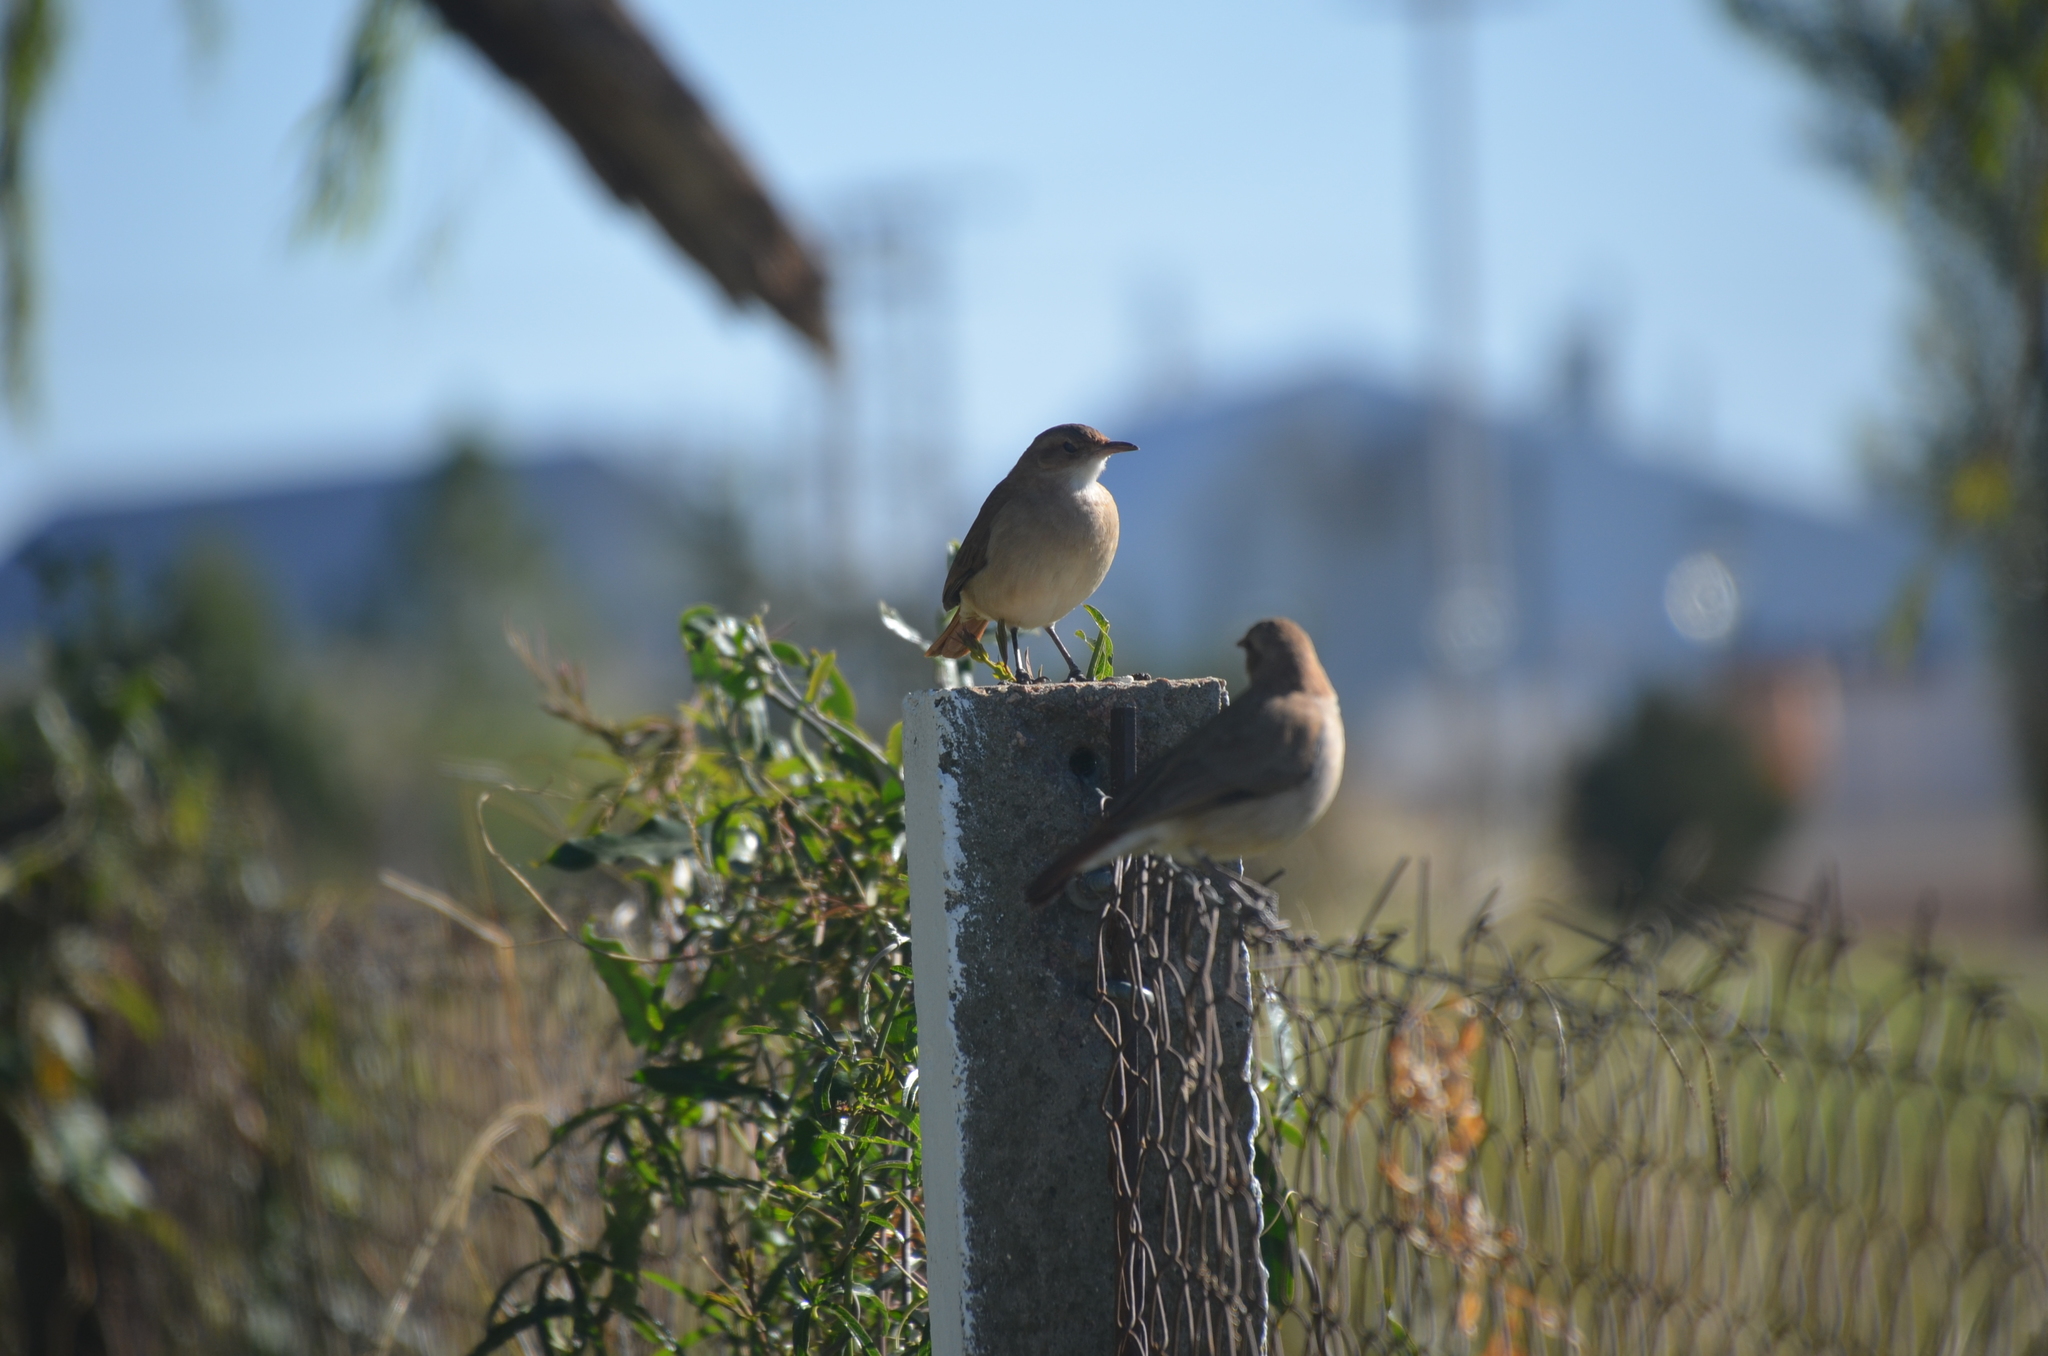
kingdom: Animalia
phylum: Chordata
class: Aves
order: Passeriformes
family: Furnariidae
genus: Furnarius
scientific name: Furnarius rufus
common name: Rufous hornero
